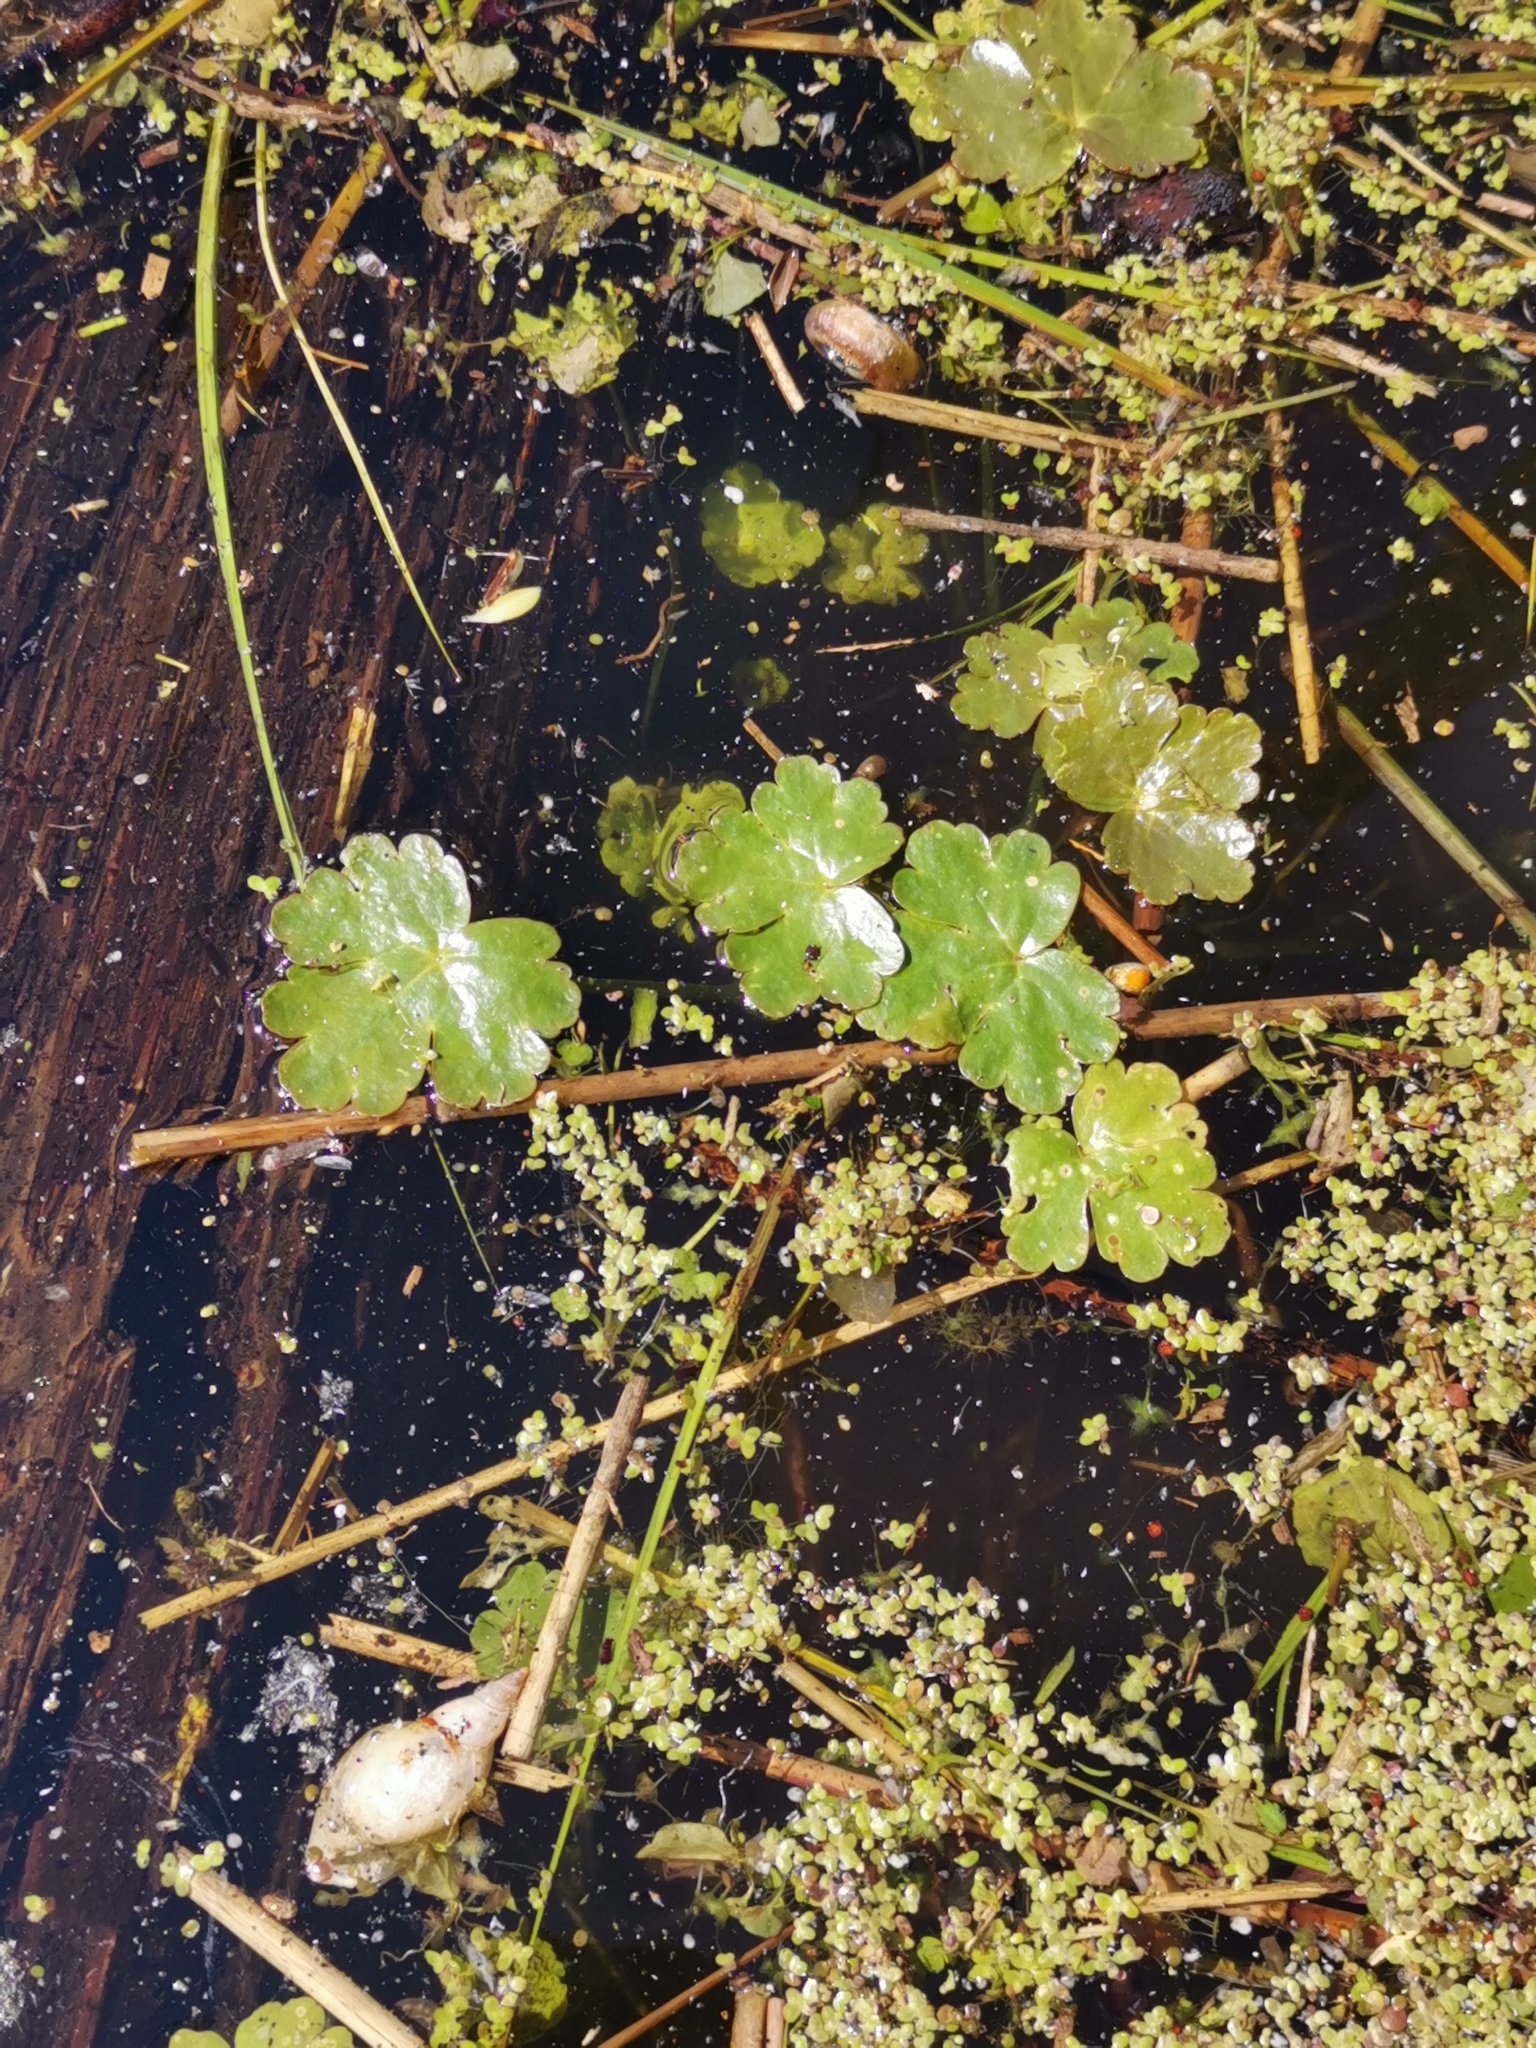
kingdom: Plantae
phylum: Tracheophyta
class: Magnoliopsida
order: Ranunculales
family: Ranunculaceae
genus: Ranunculus
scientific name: Ranunculus sceleratus
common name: Celery-leaved buttercup
